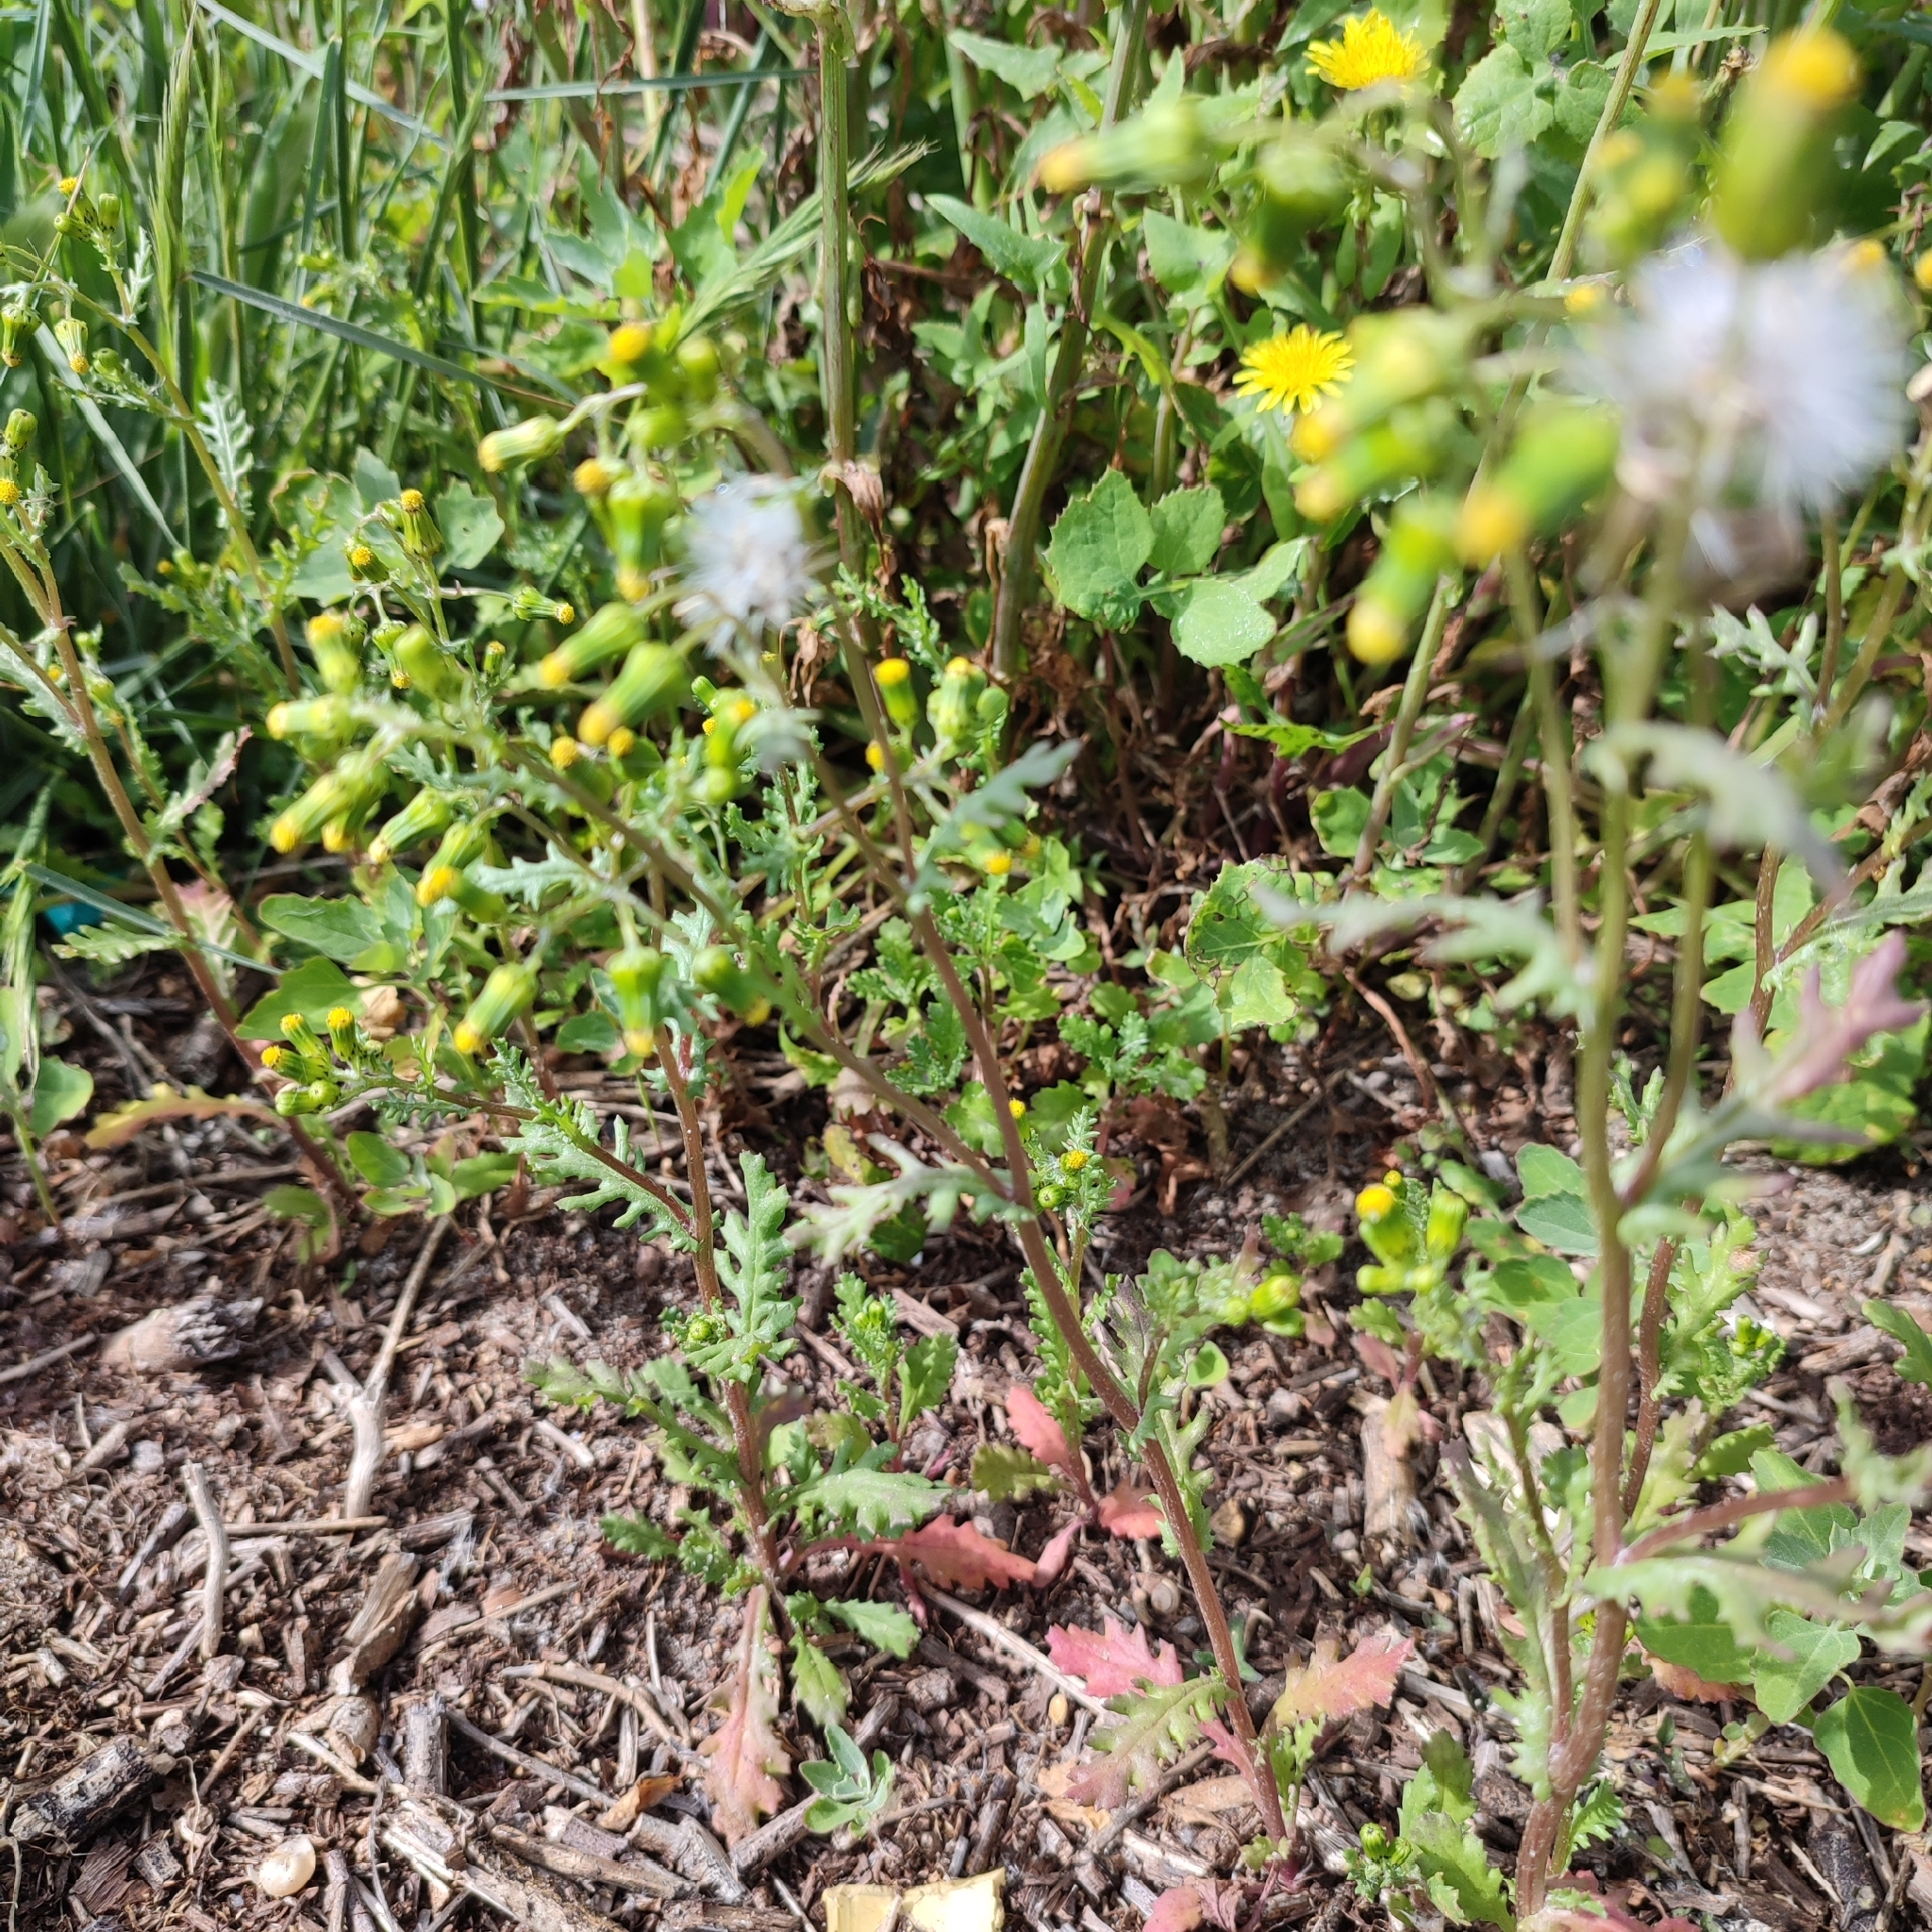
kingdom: Plantae
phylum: Tracheophyta
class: Magnoliopsida
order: Asterales
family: Asteraceae
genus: Senecio
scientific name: Senecio vulgaris
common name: Old-man-in-the-spring
